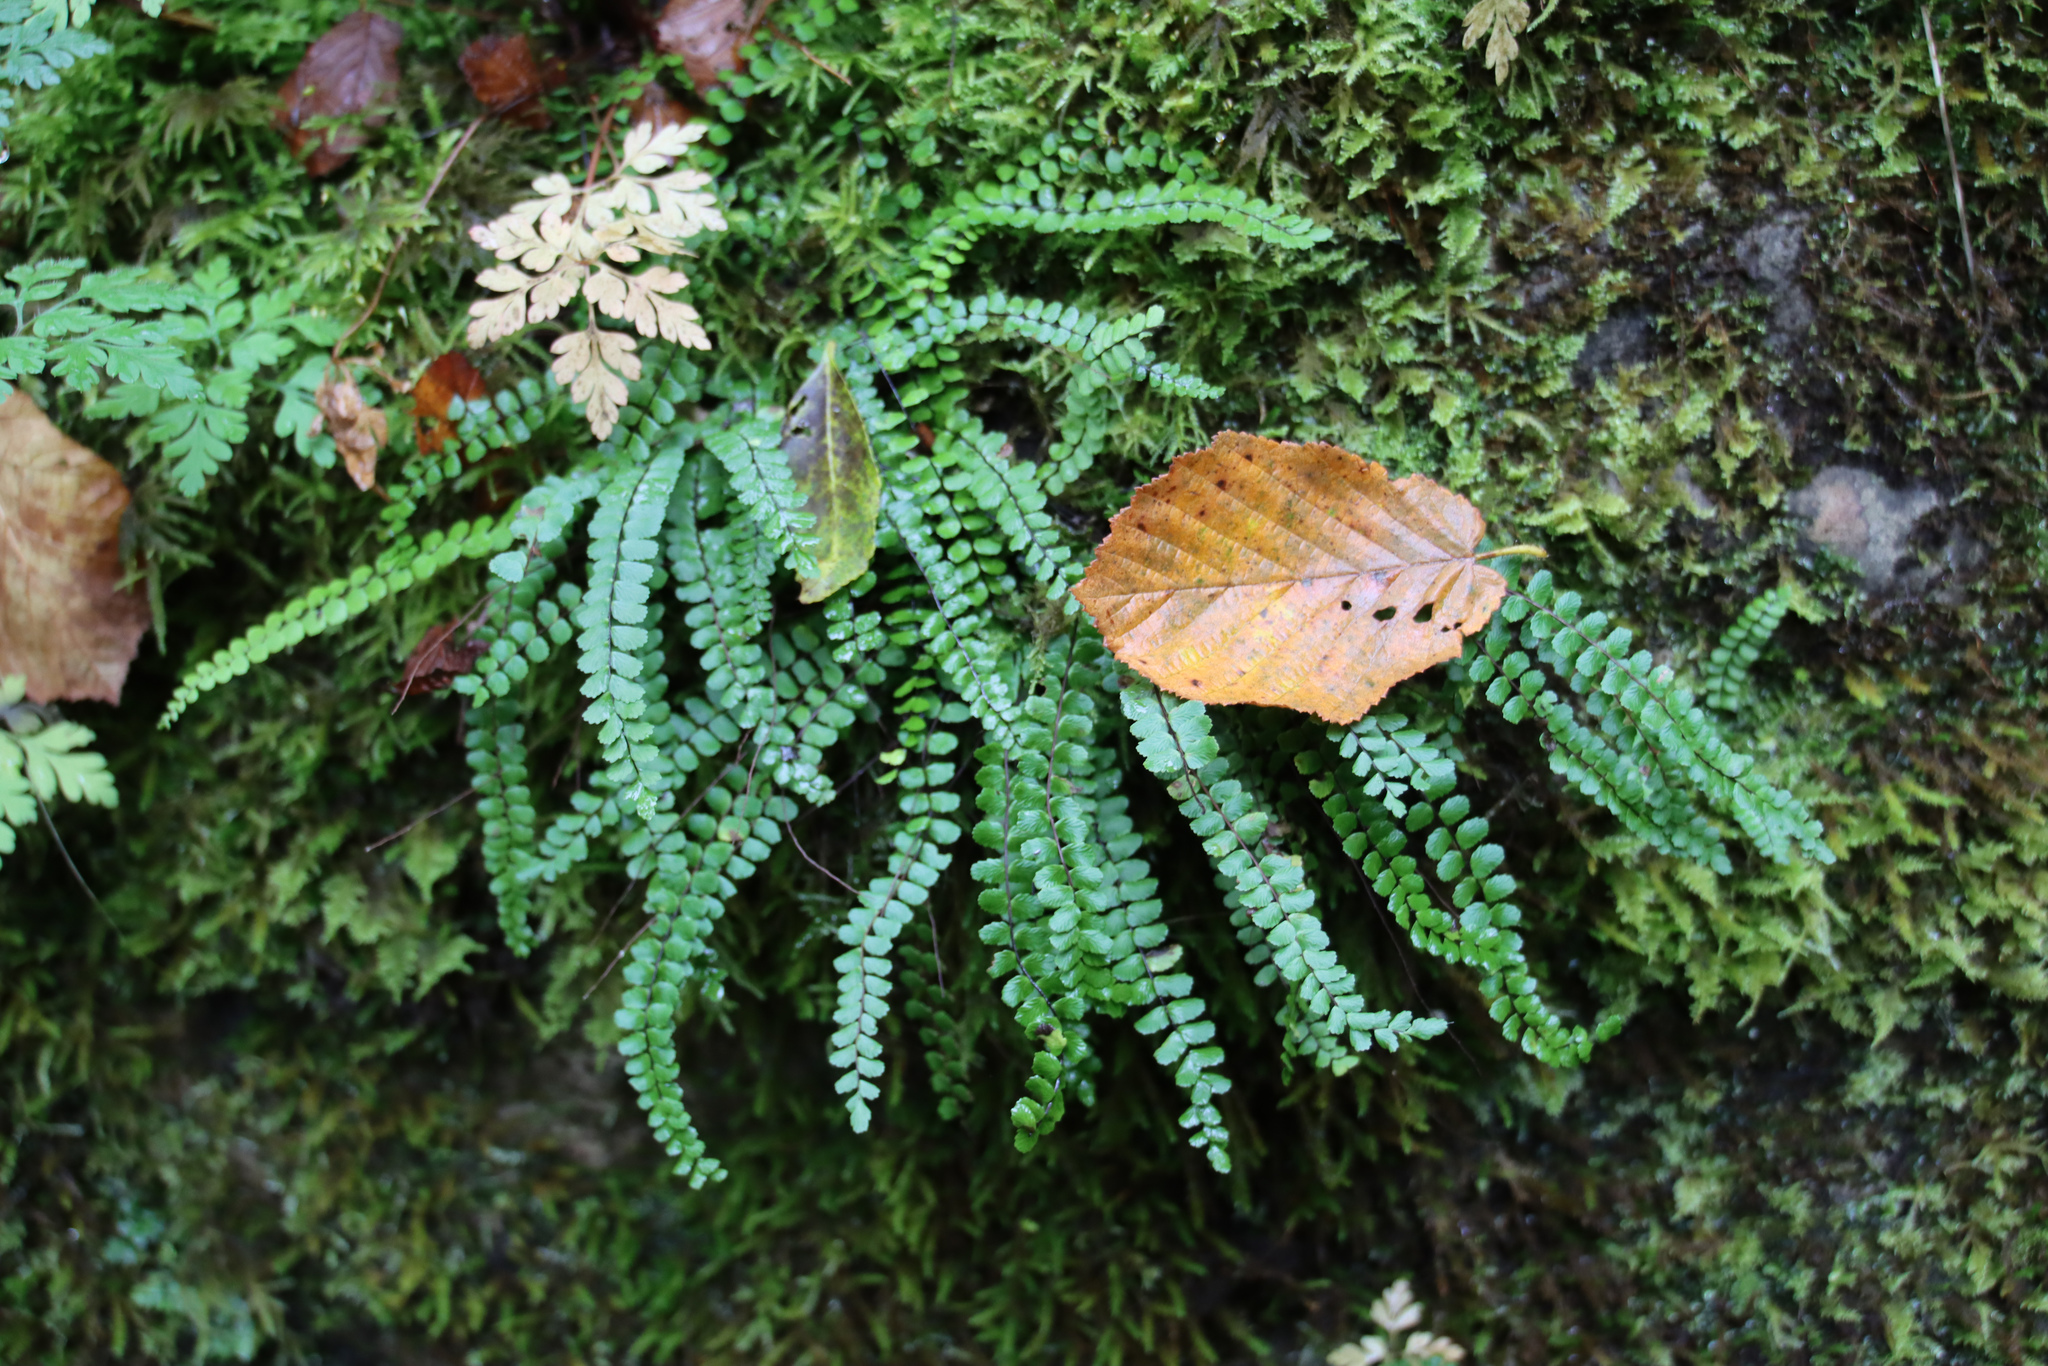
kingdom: Plantae
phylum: Tracheophyta
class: Polypodiopsida
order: Polypodiales
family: Aspleniaceae
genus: Asplenium
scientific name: Asplenium trichomanes
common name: Maidenhair spleenwort
